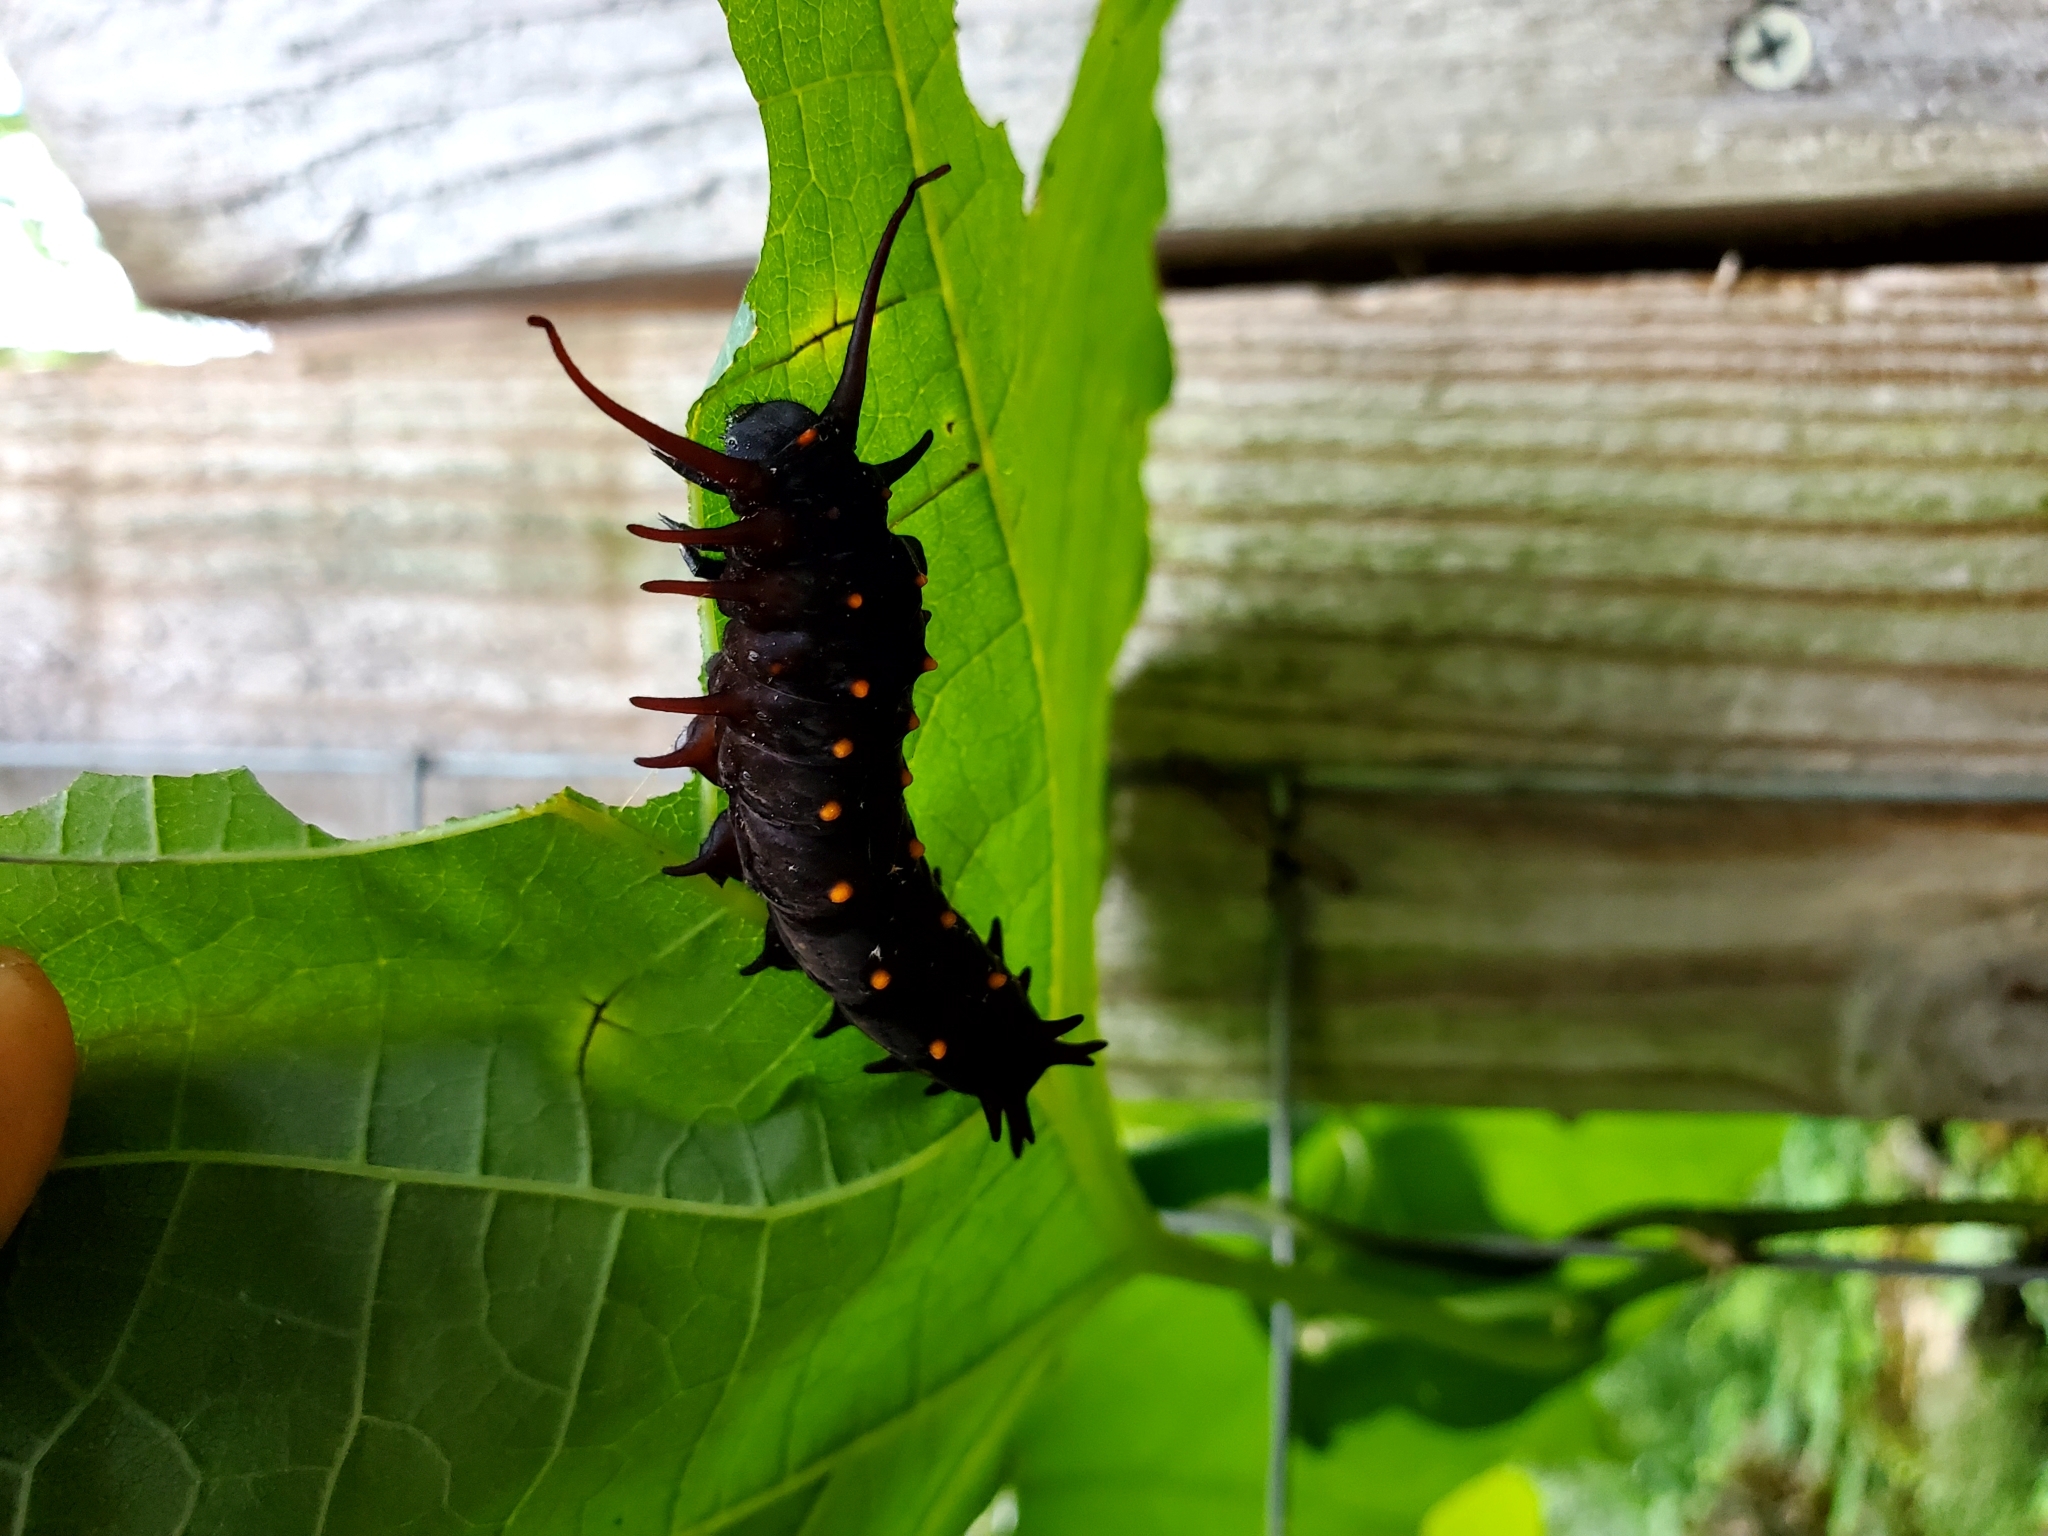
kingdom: Animalia
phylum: Arthropoda
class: Insecta
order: Lepidoptera
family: Papilionidae
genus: Battus
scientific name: Battus philenor
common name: Pipevine swallowtail
